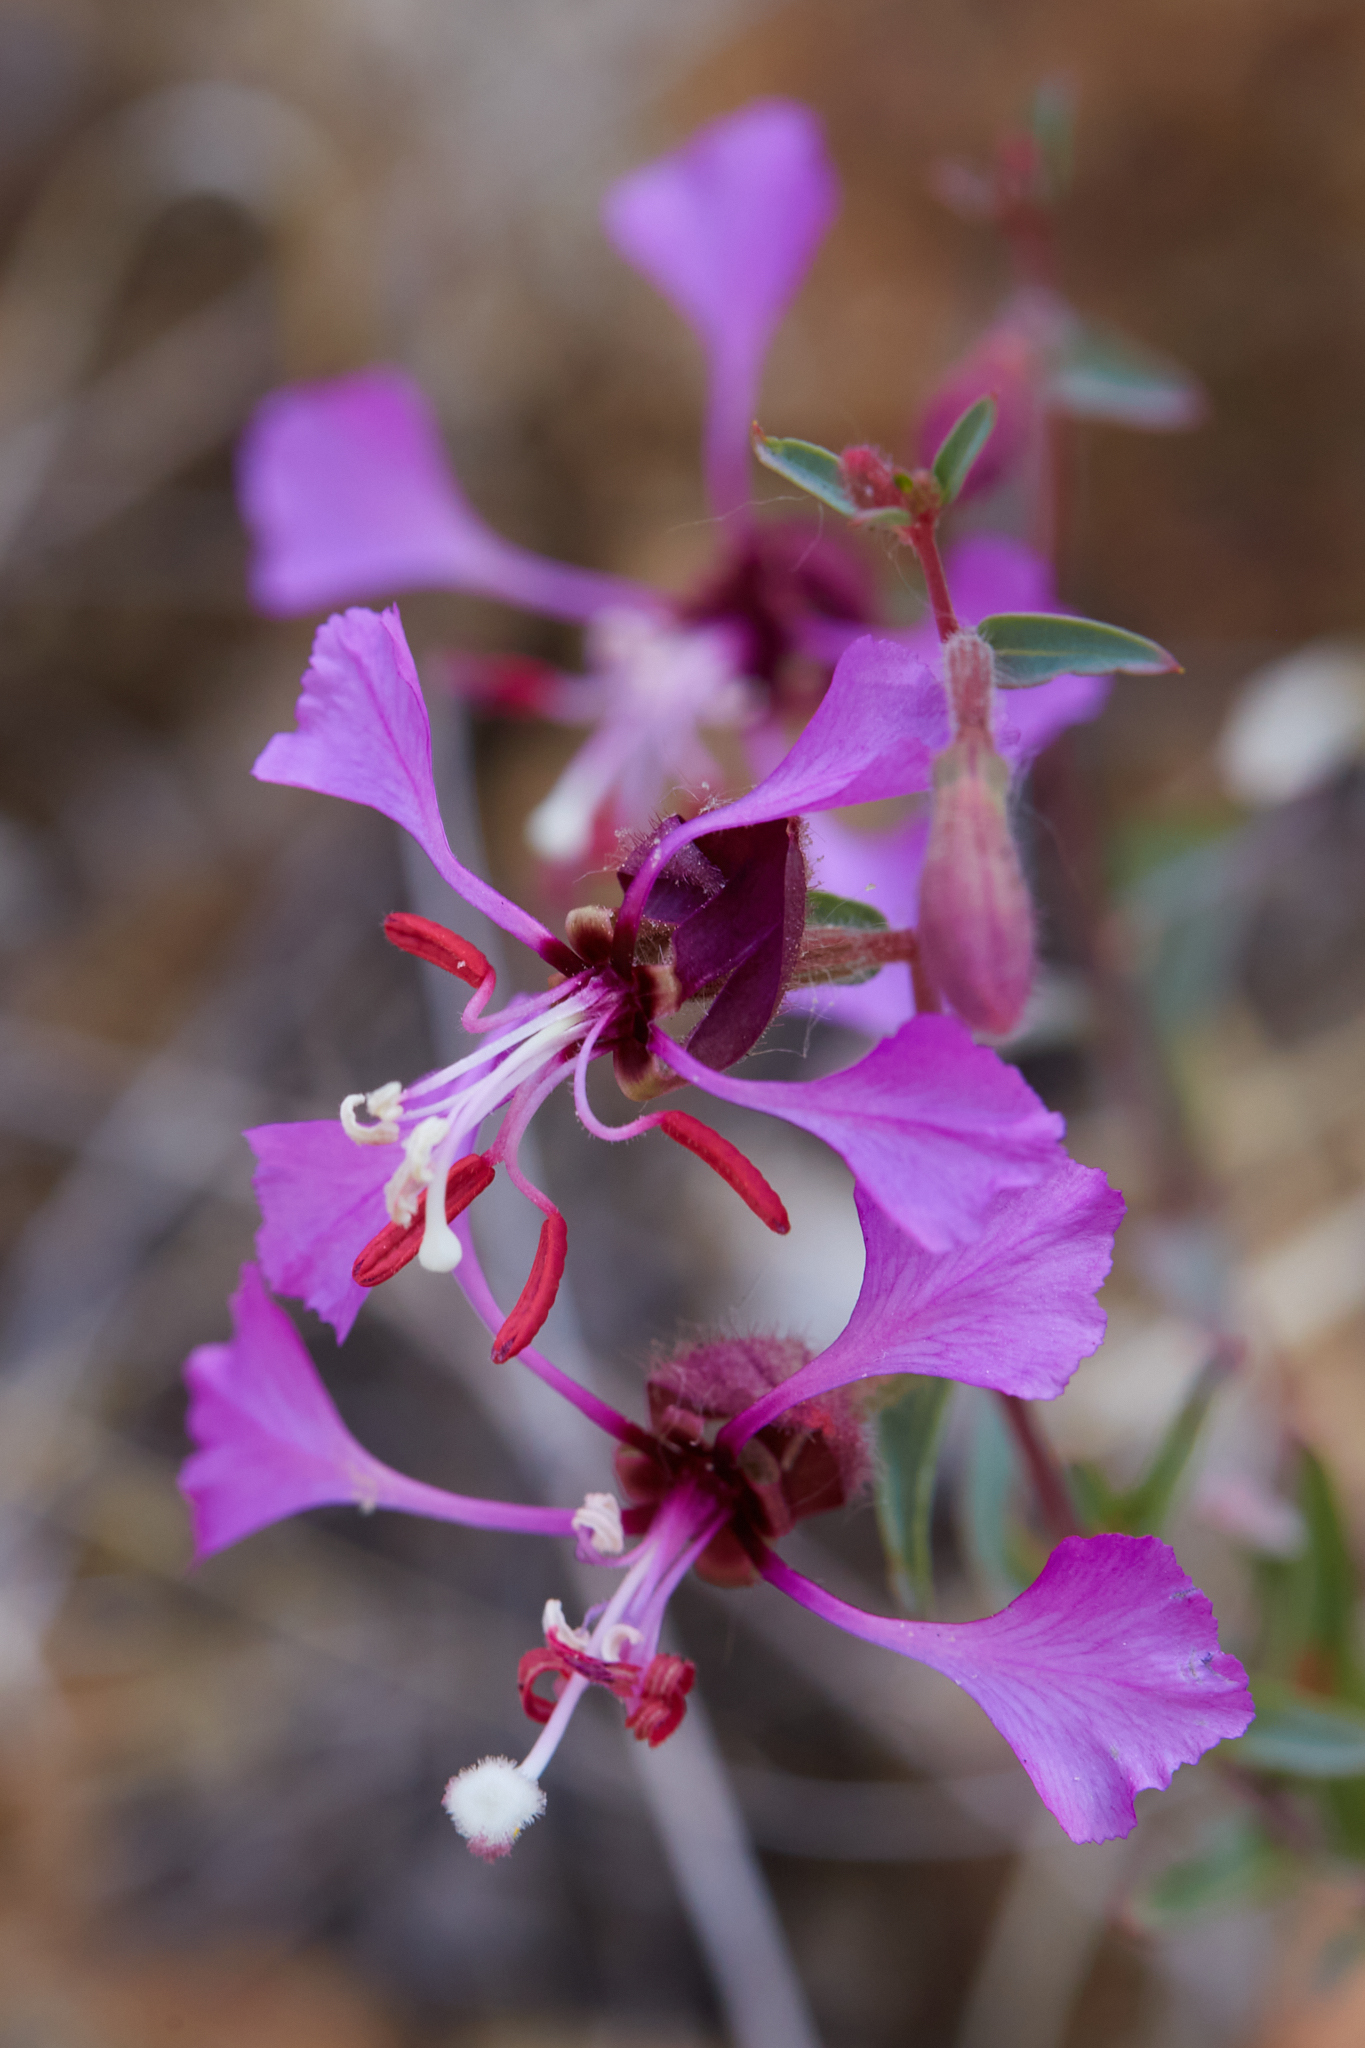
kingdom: Plantae
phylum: Tracheophyta
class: Magnoliopsida
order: Myrtales
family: Onagraceae
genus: Clarkia
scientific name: Clarkia unguiculata
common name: Clarkia
